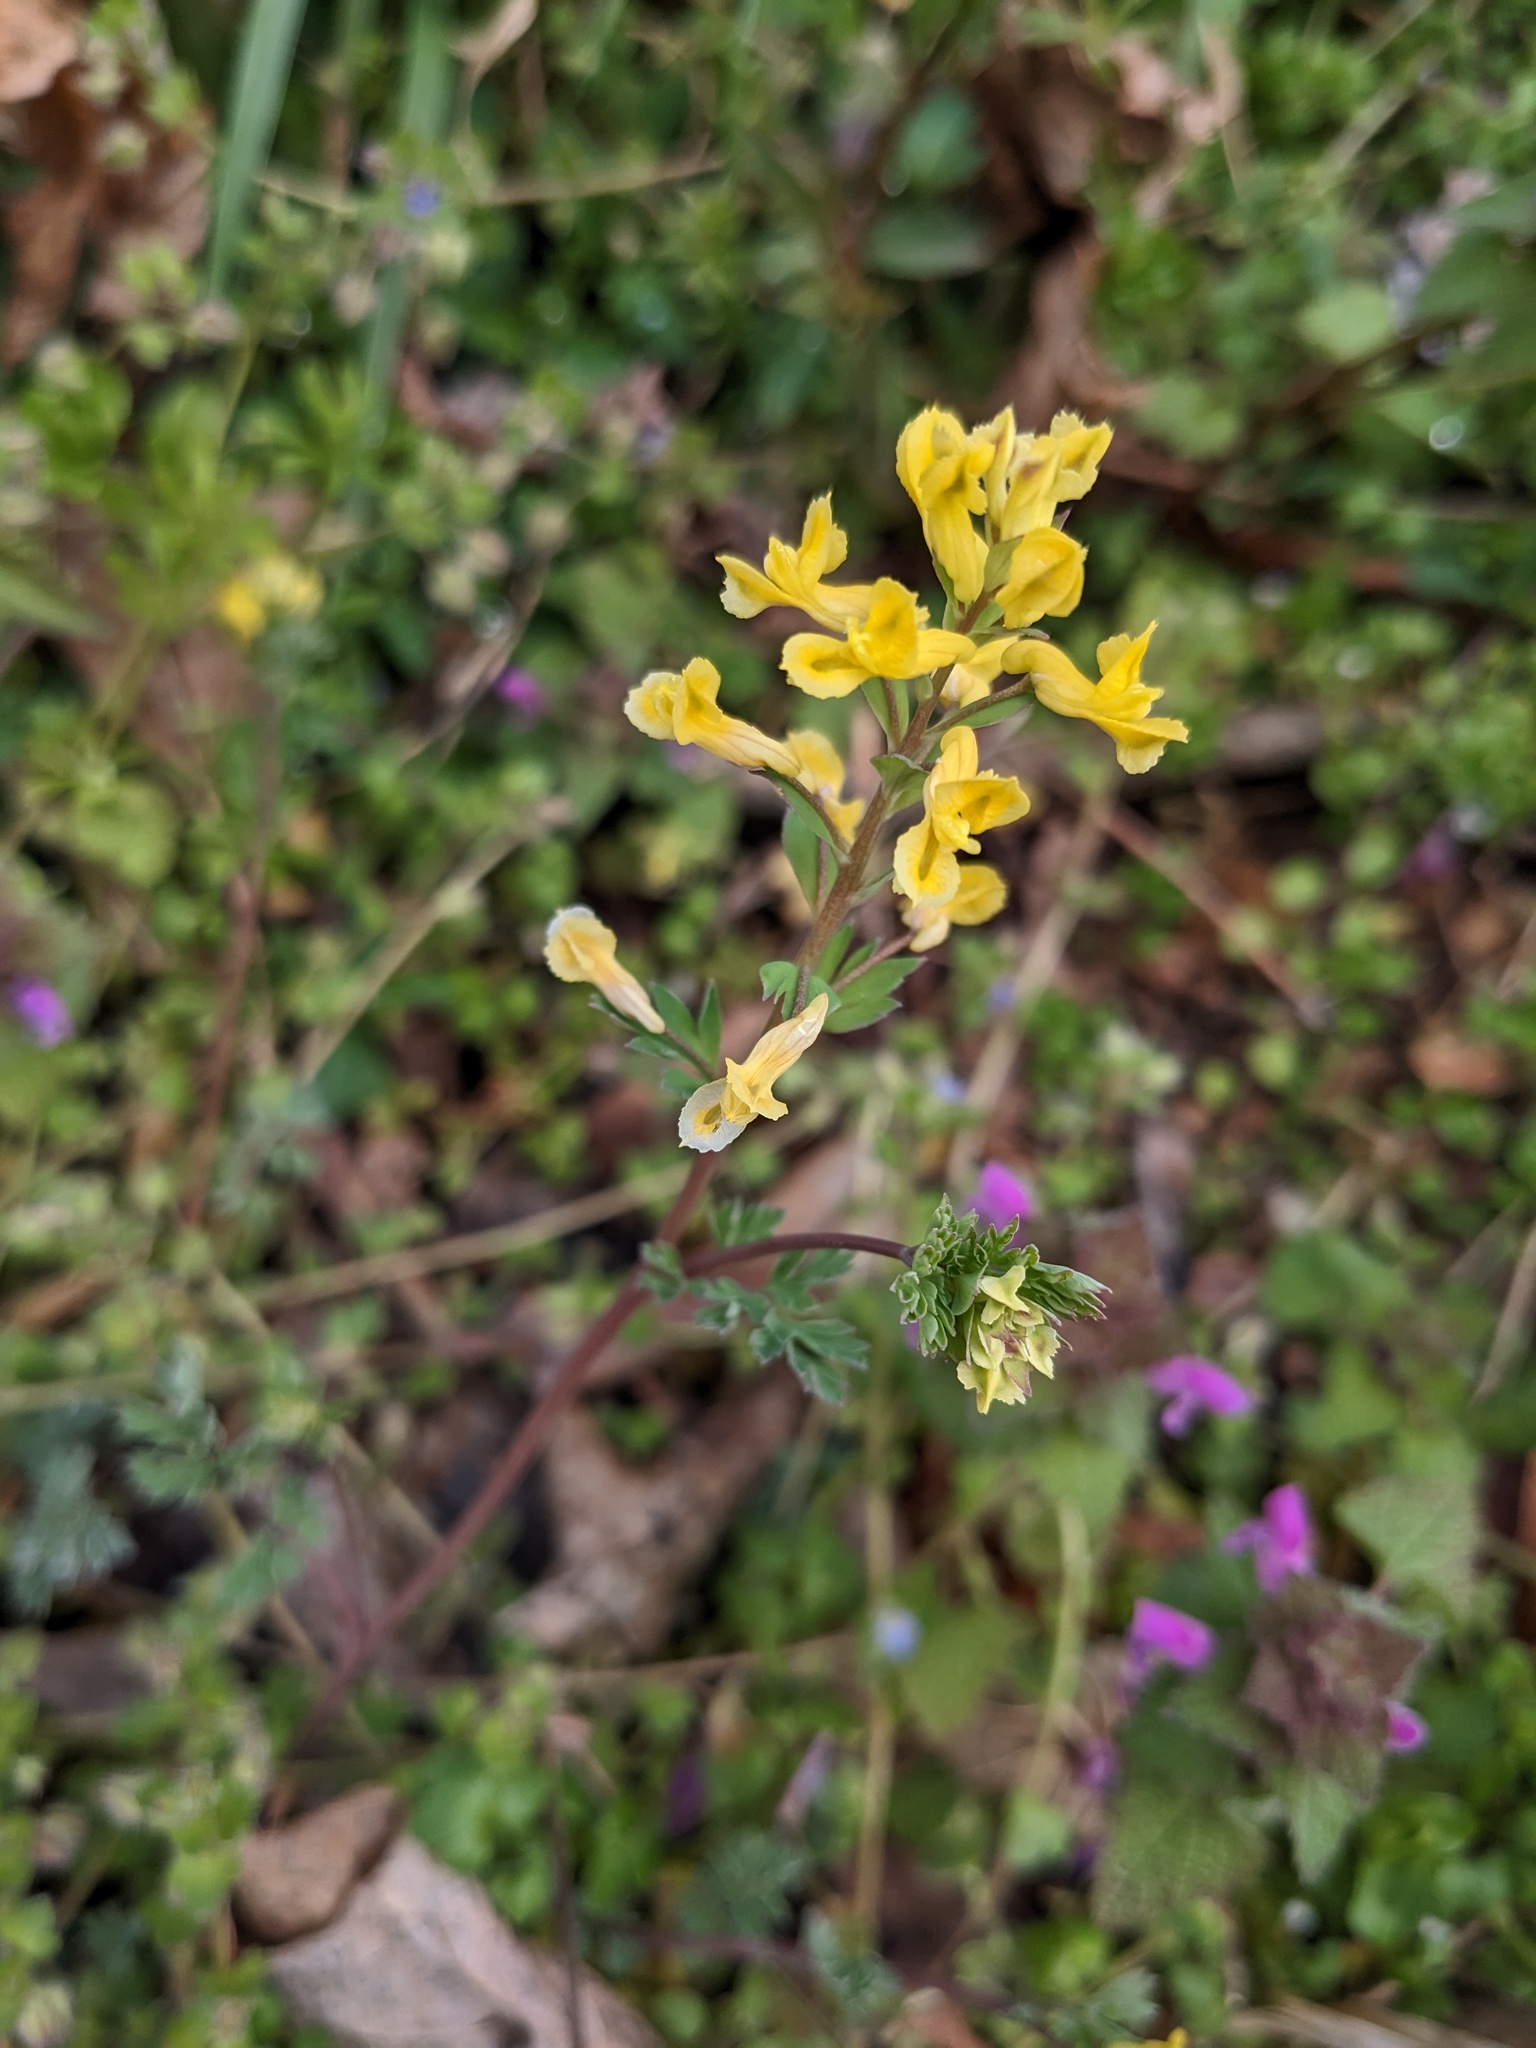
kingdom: Plantae
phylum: Tracheophyta
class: Magnoliopsida
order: Ranunculales
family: Papaveraceae
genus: Corydalis
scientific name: Corydalis flavula
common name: Yellow corydalis
